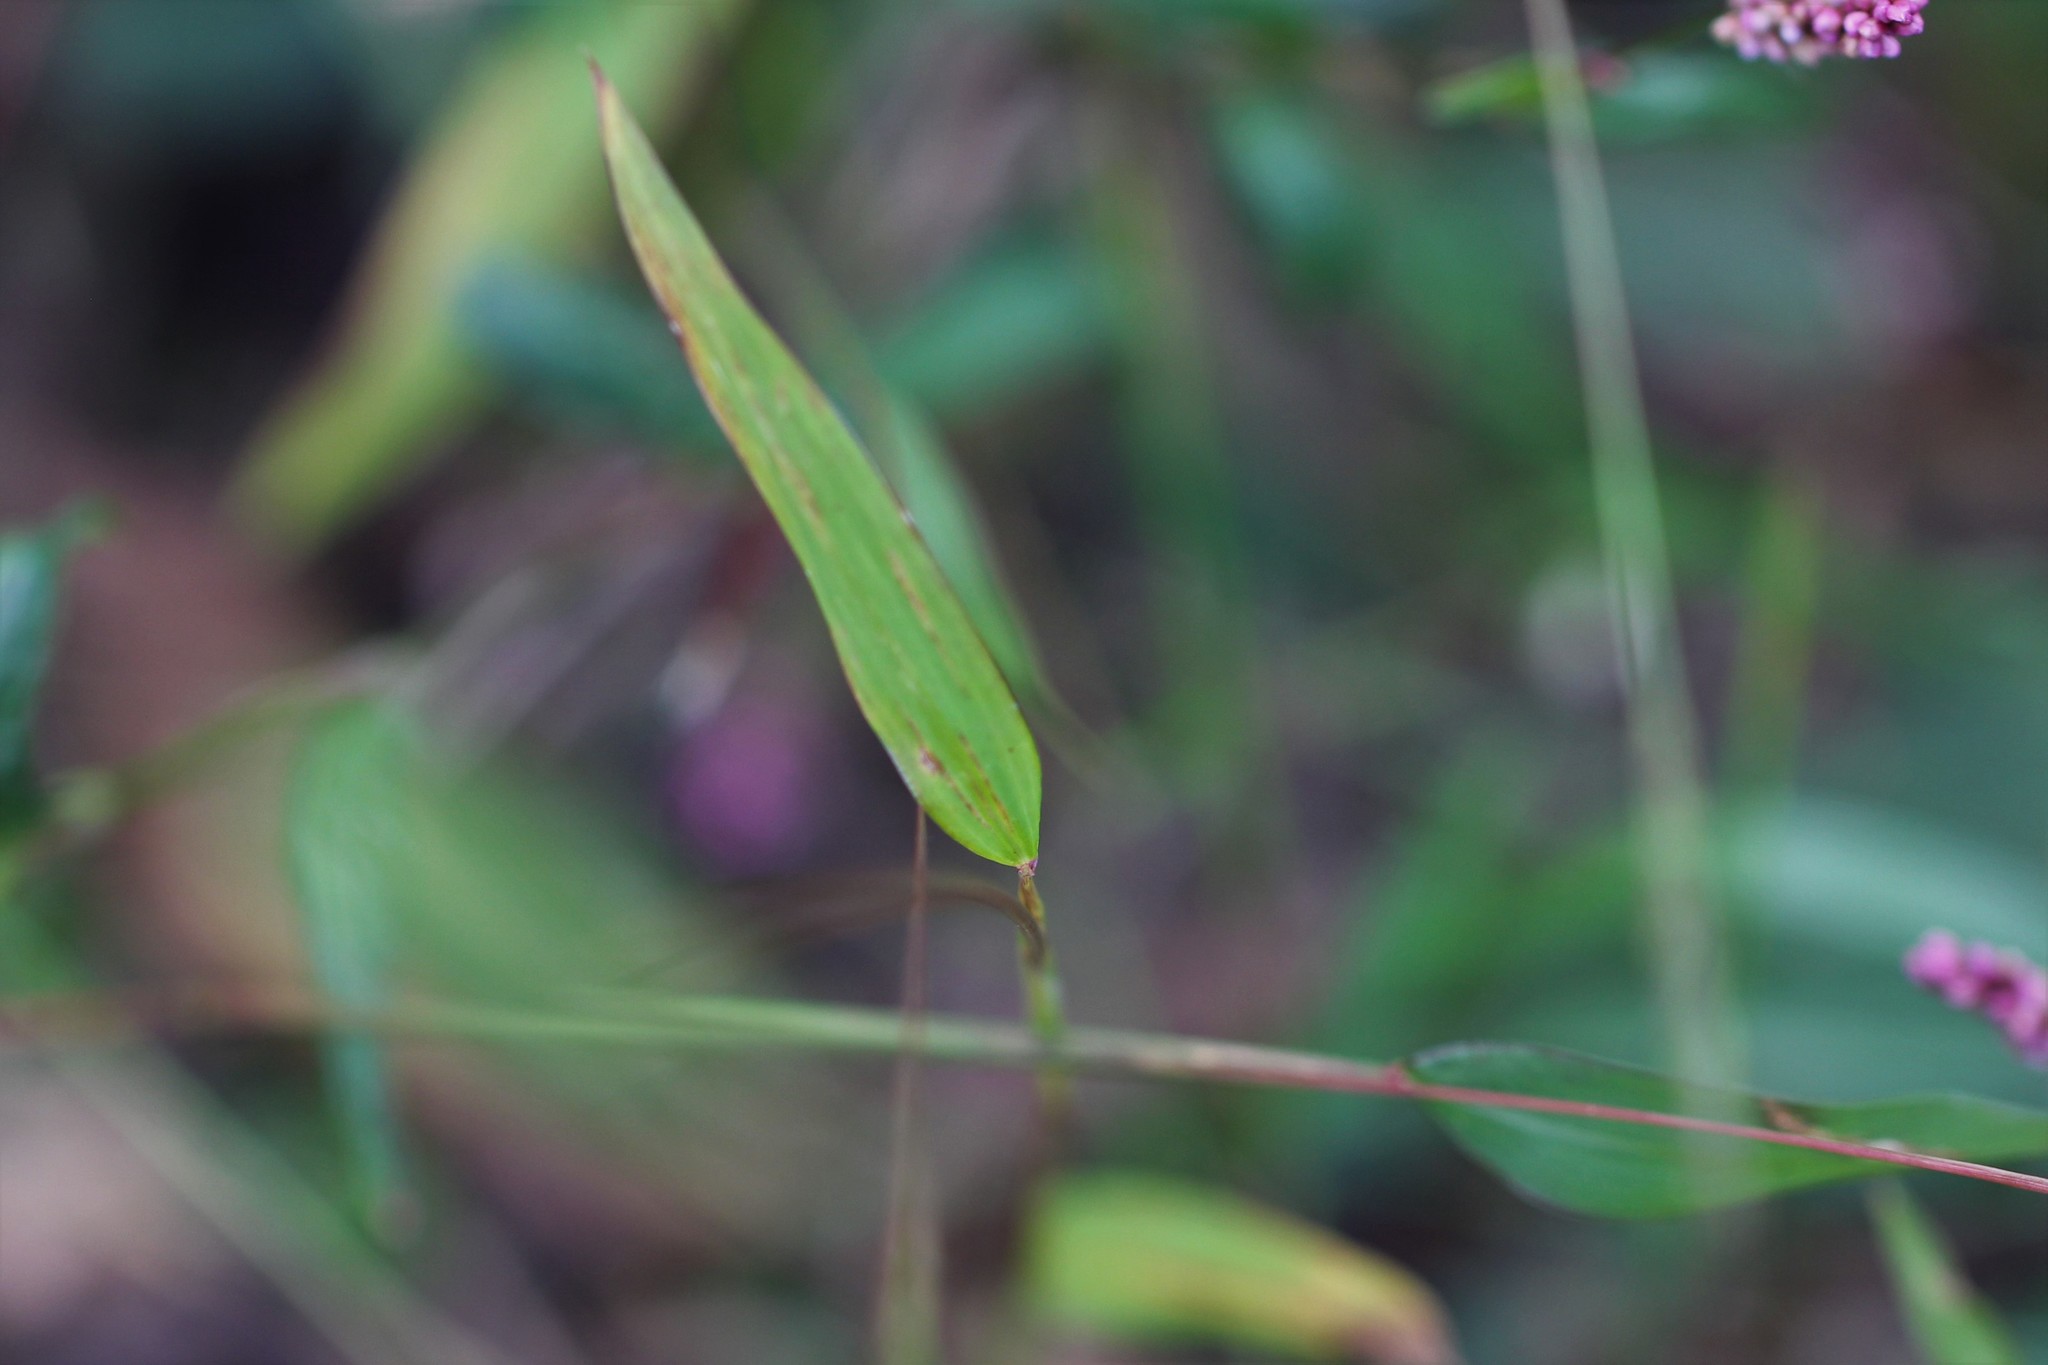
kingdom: Plantae
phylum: Tracheophyta
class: Liliopsida
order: Poales
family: Poaceae
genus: Microstegium
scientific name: Microstegium vimineum
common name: Japanese stiltgrass
